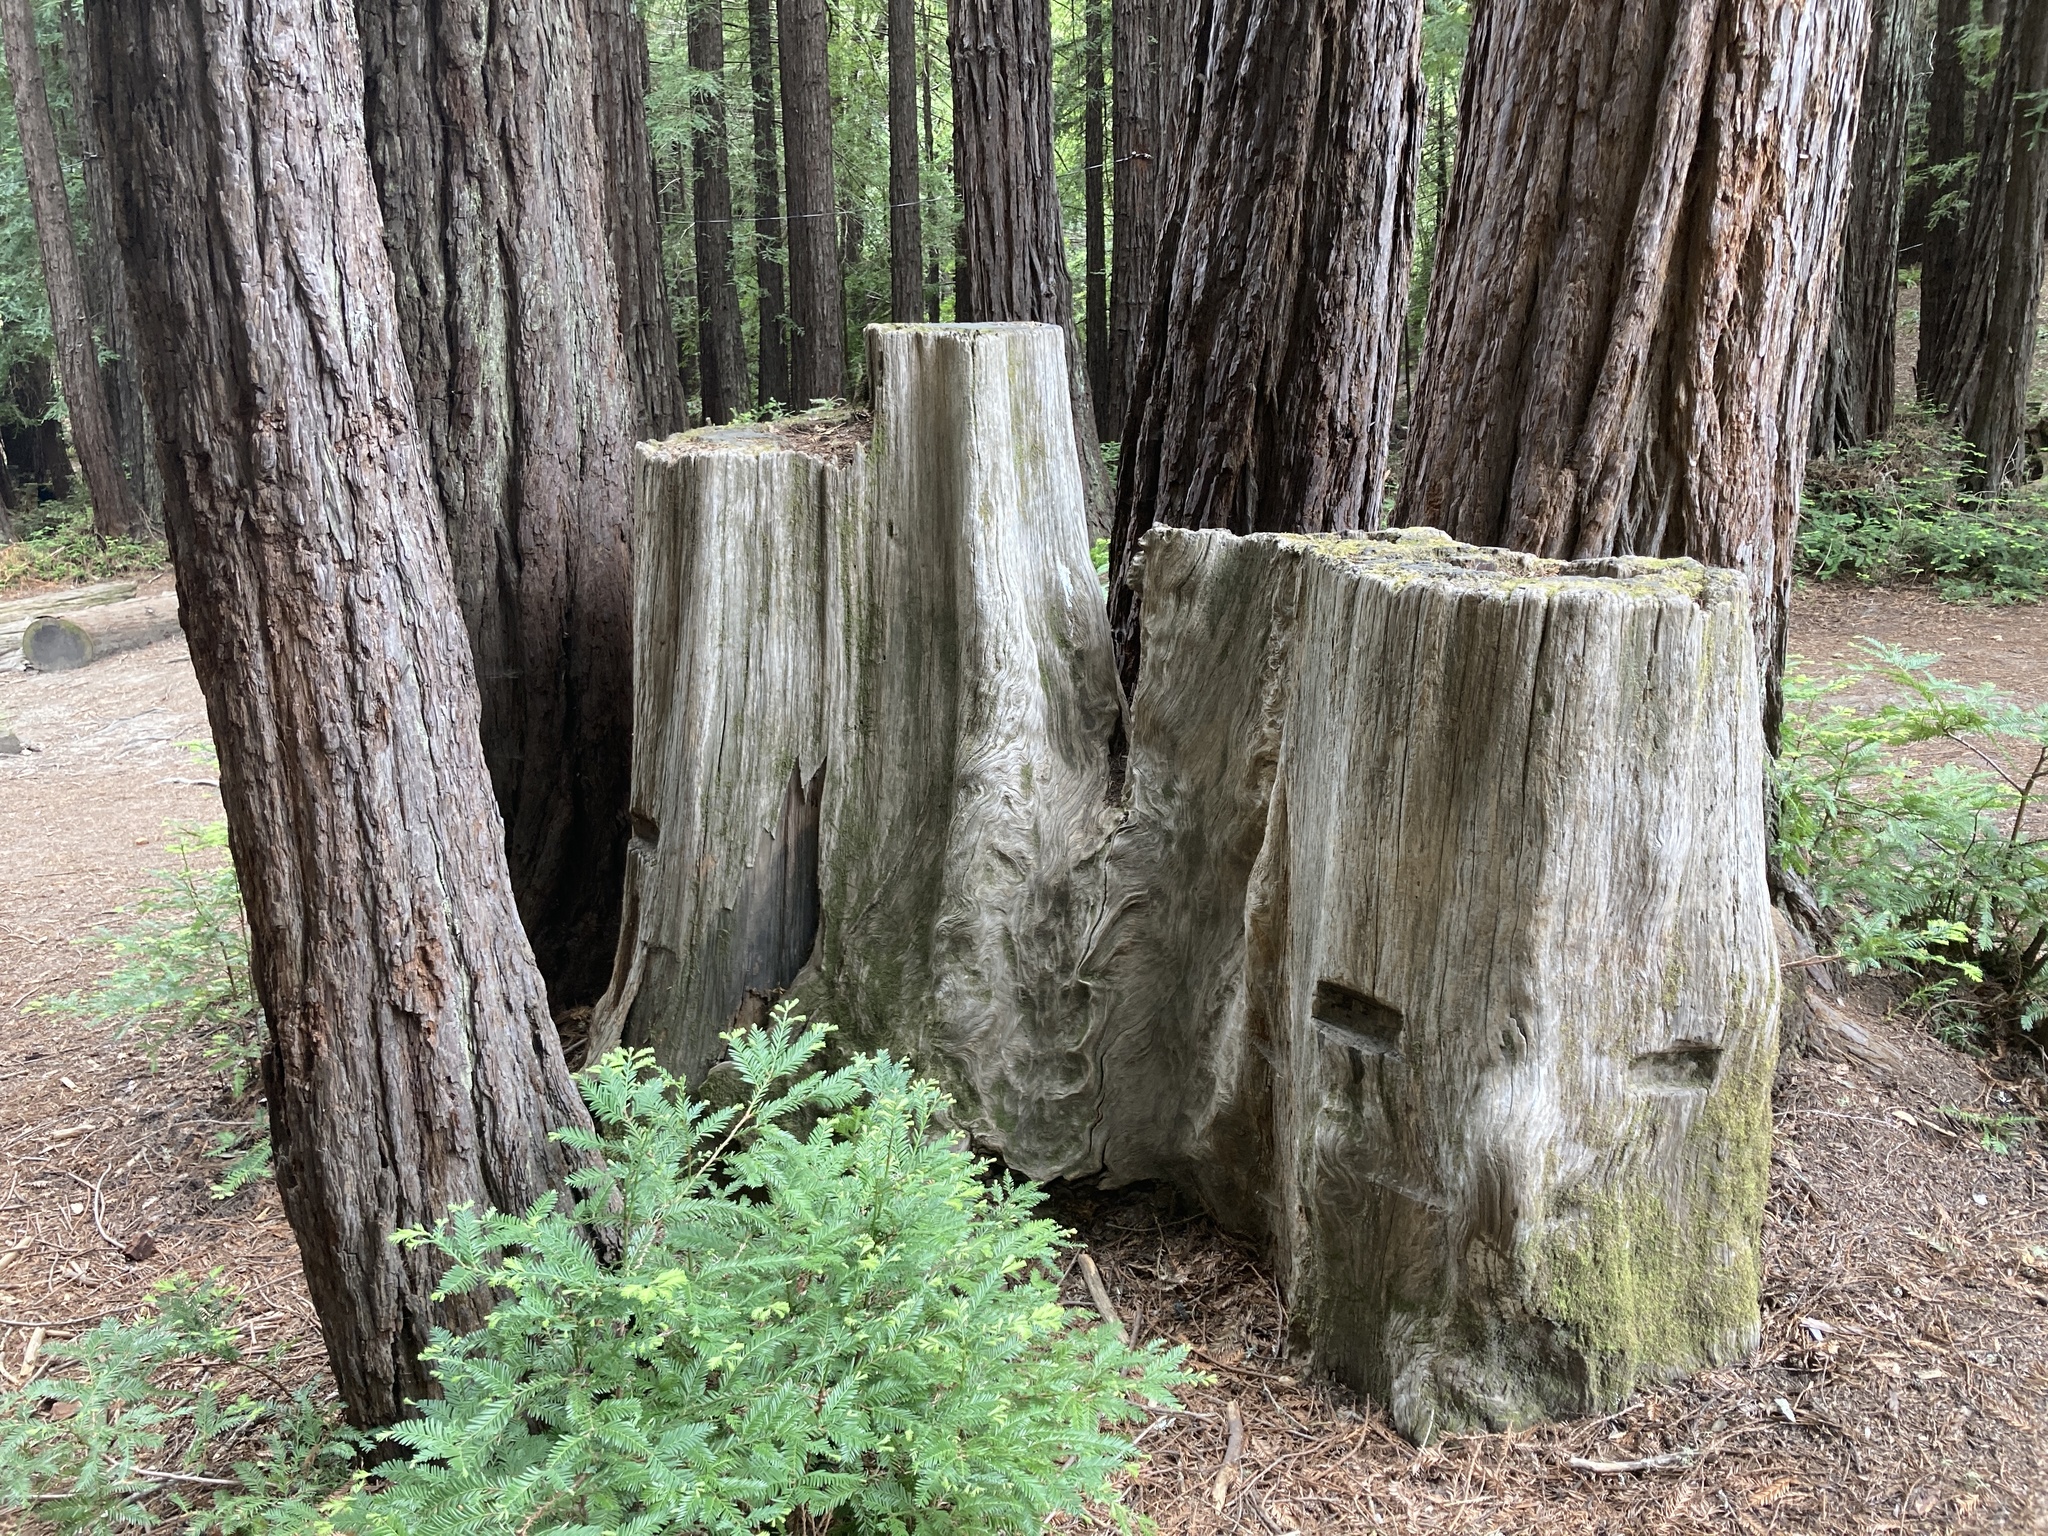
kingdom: Plantae
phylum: Tracheophyta
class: Pinopsida
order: Pinales
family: Cupressaceae
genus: Sequoia
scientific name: Sequoia sempervirens
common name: Coast redwood
